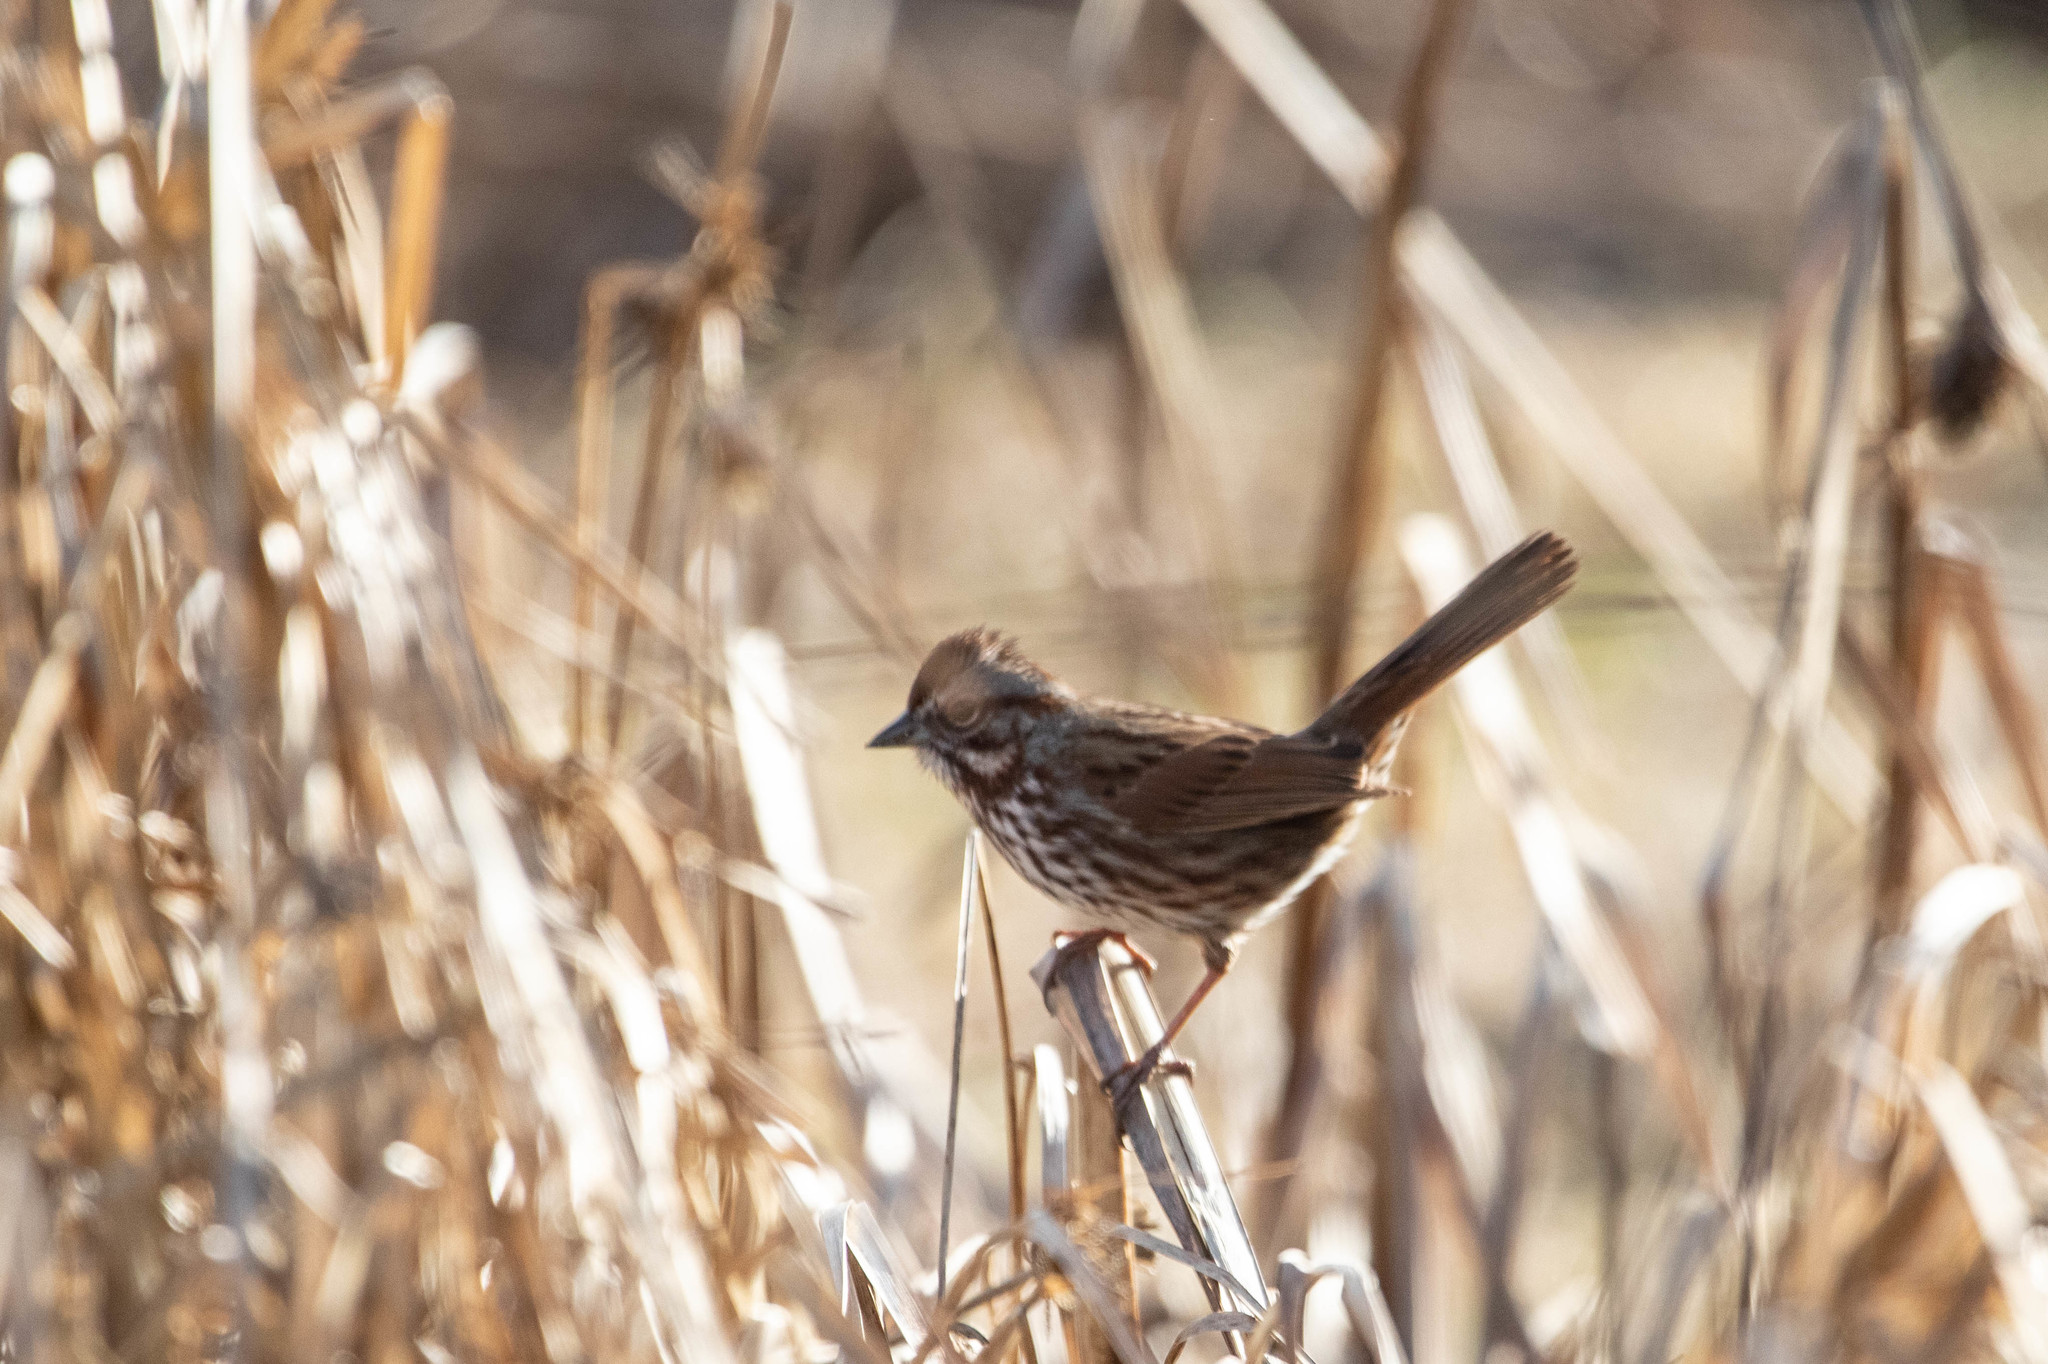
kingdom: Animalia
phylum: Chordata
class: Aves
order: Passeriformes
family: Passerellidae
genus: Melospiza
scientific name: Melospiza melodia
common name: Song sparrow
